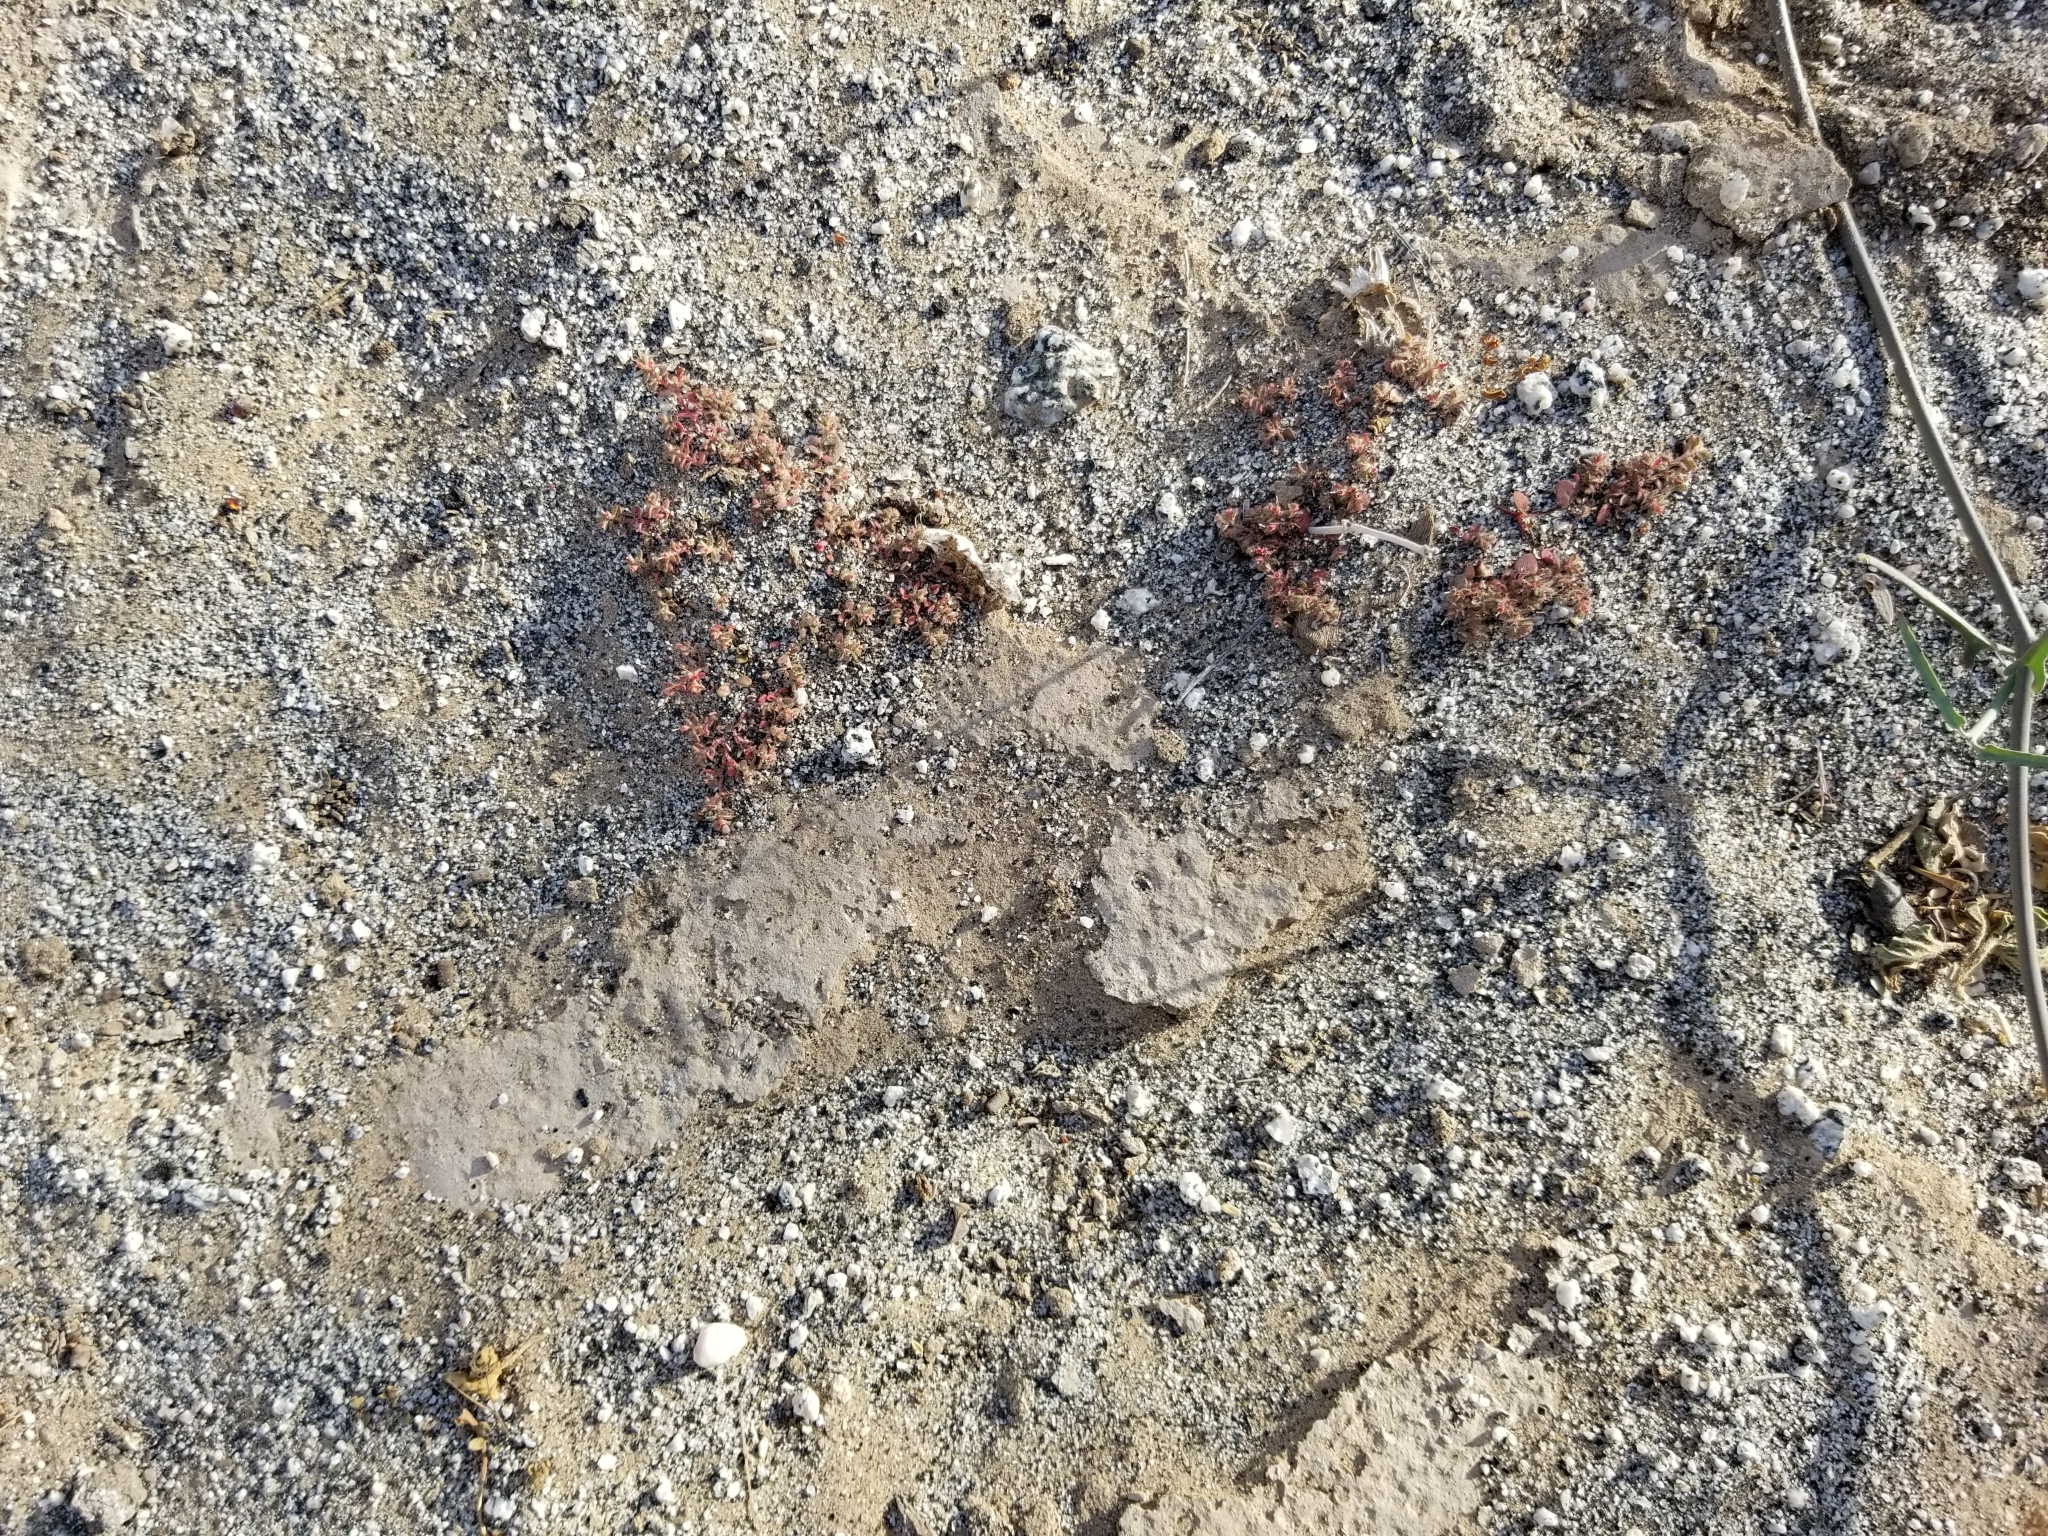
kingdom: Plantae
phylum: Tracheophyta
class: Magnoliopsida
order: Malpighiales
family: Euphorbiaceae
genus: Euphorbia
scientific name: Euphorbia setiloba
